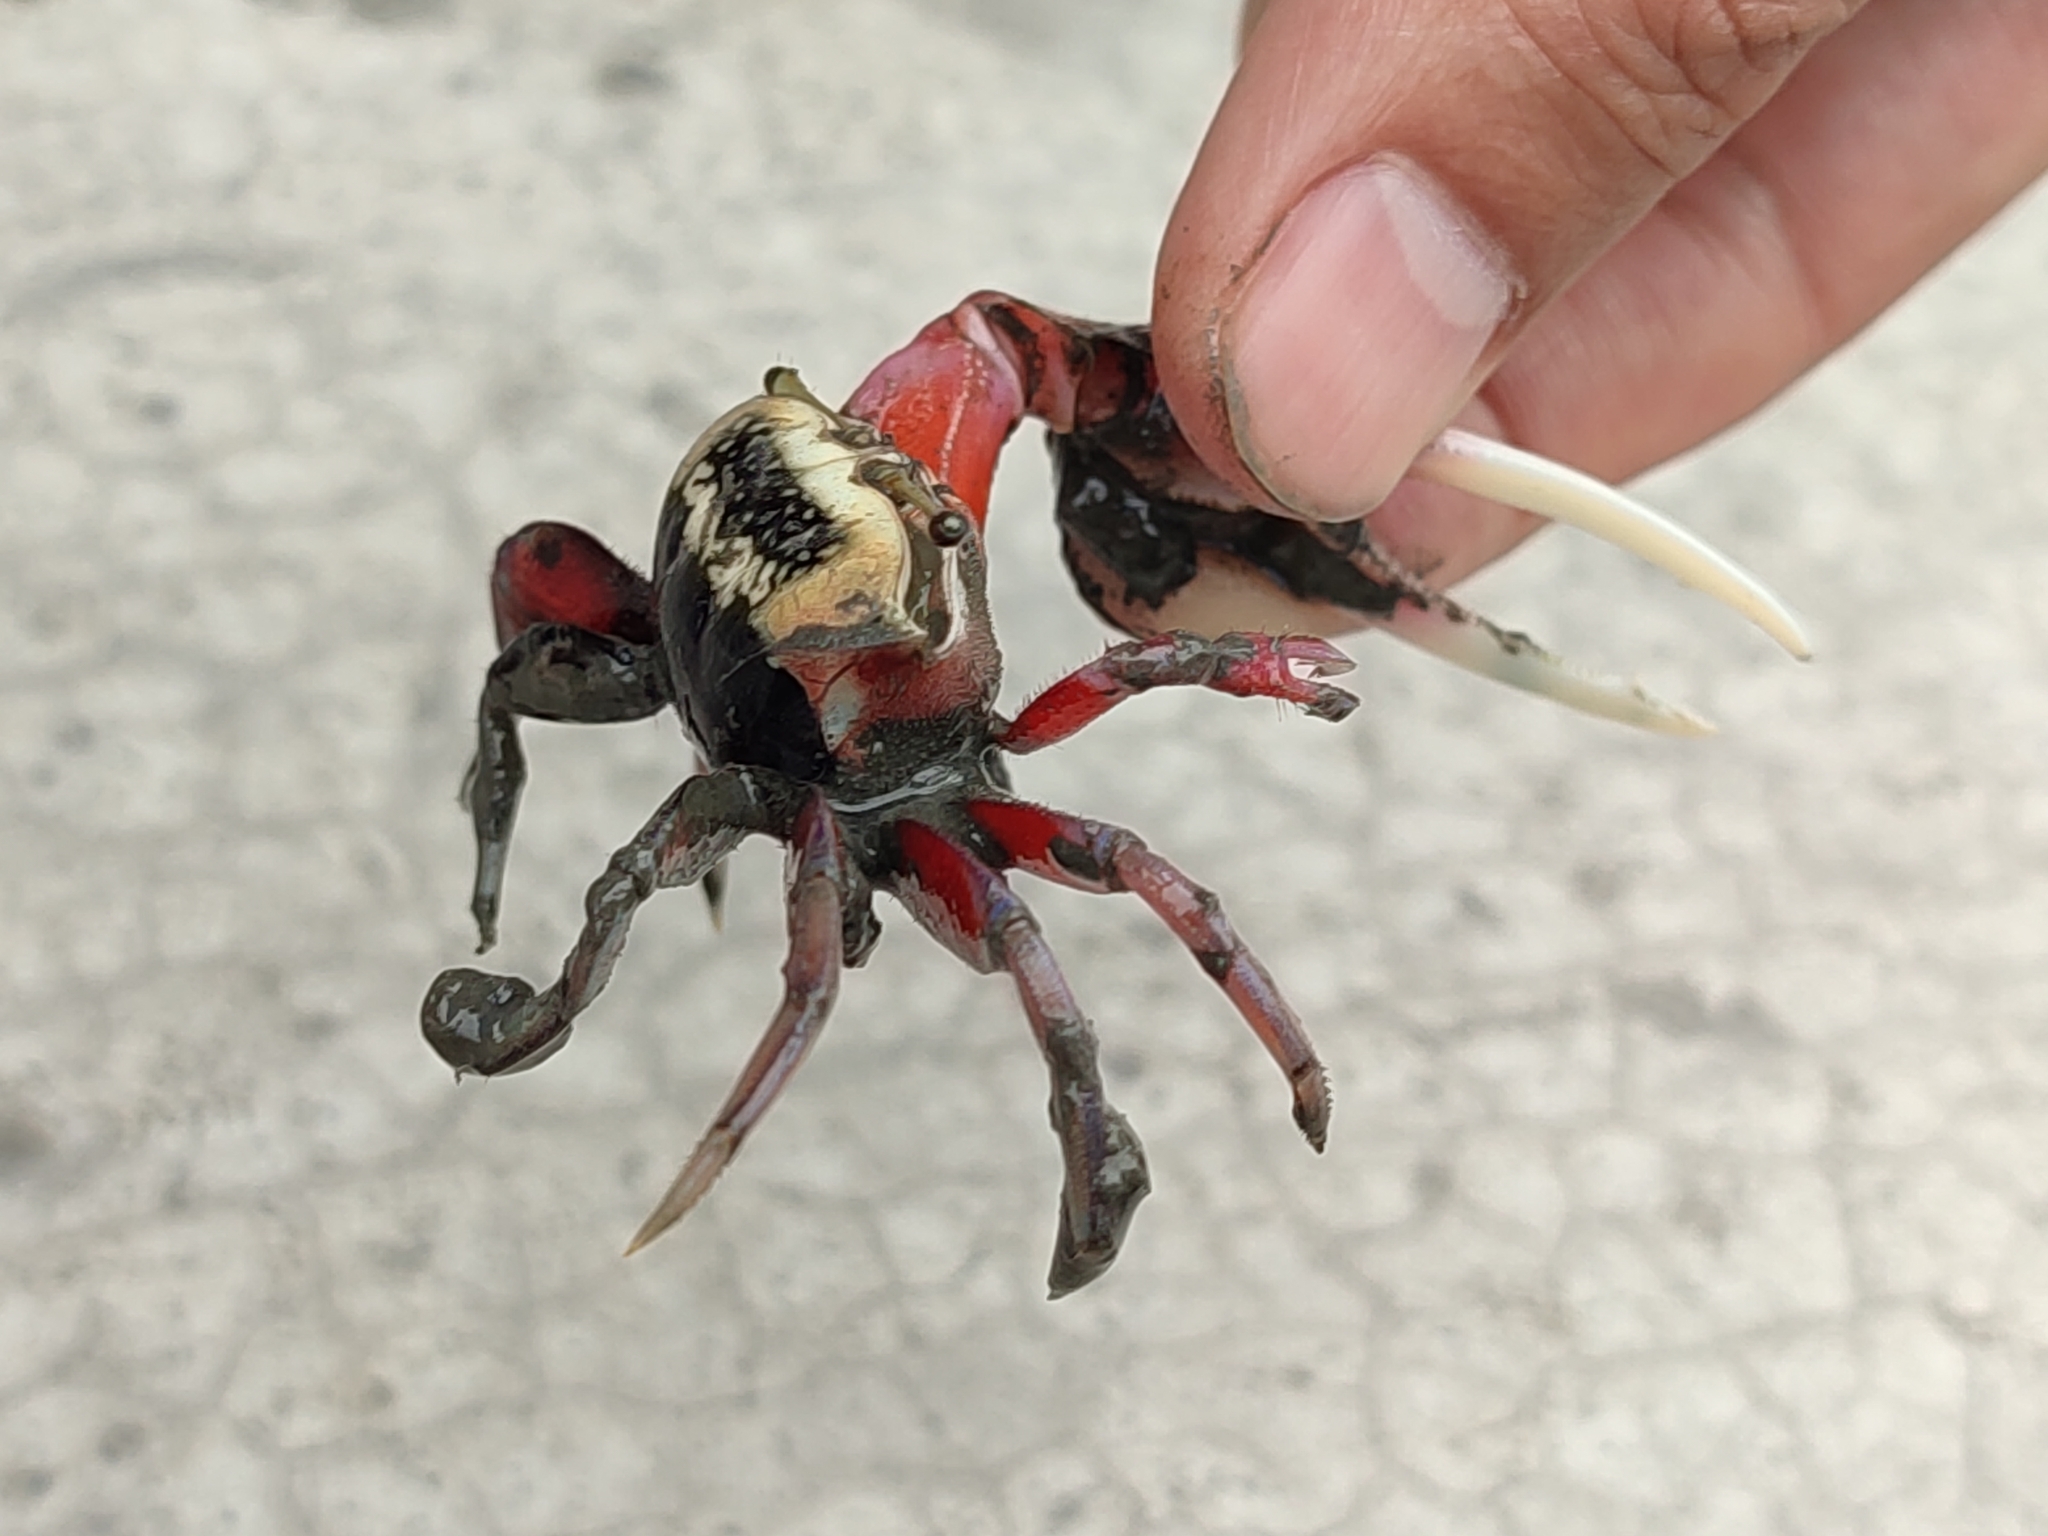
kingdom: Animalia
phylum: Arthropoda
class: Malacostraca
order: Decapoda
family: Ocypodidae
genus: Tubuca
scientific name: Tubuca arcuata
